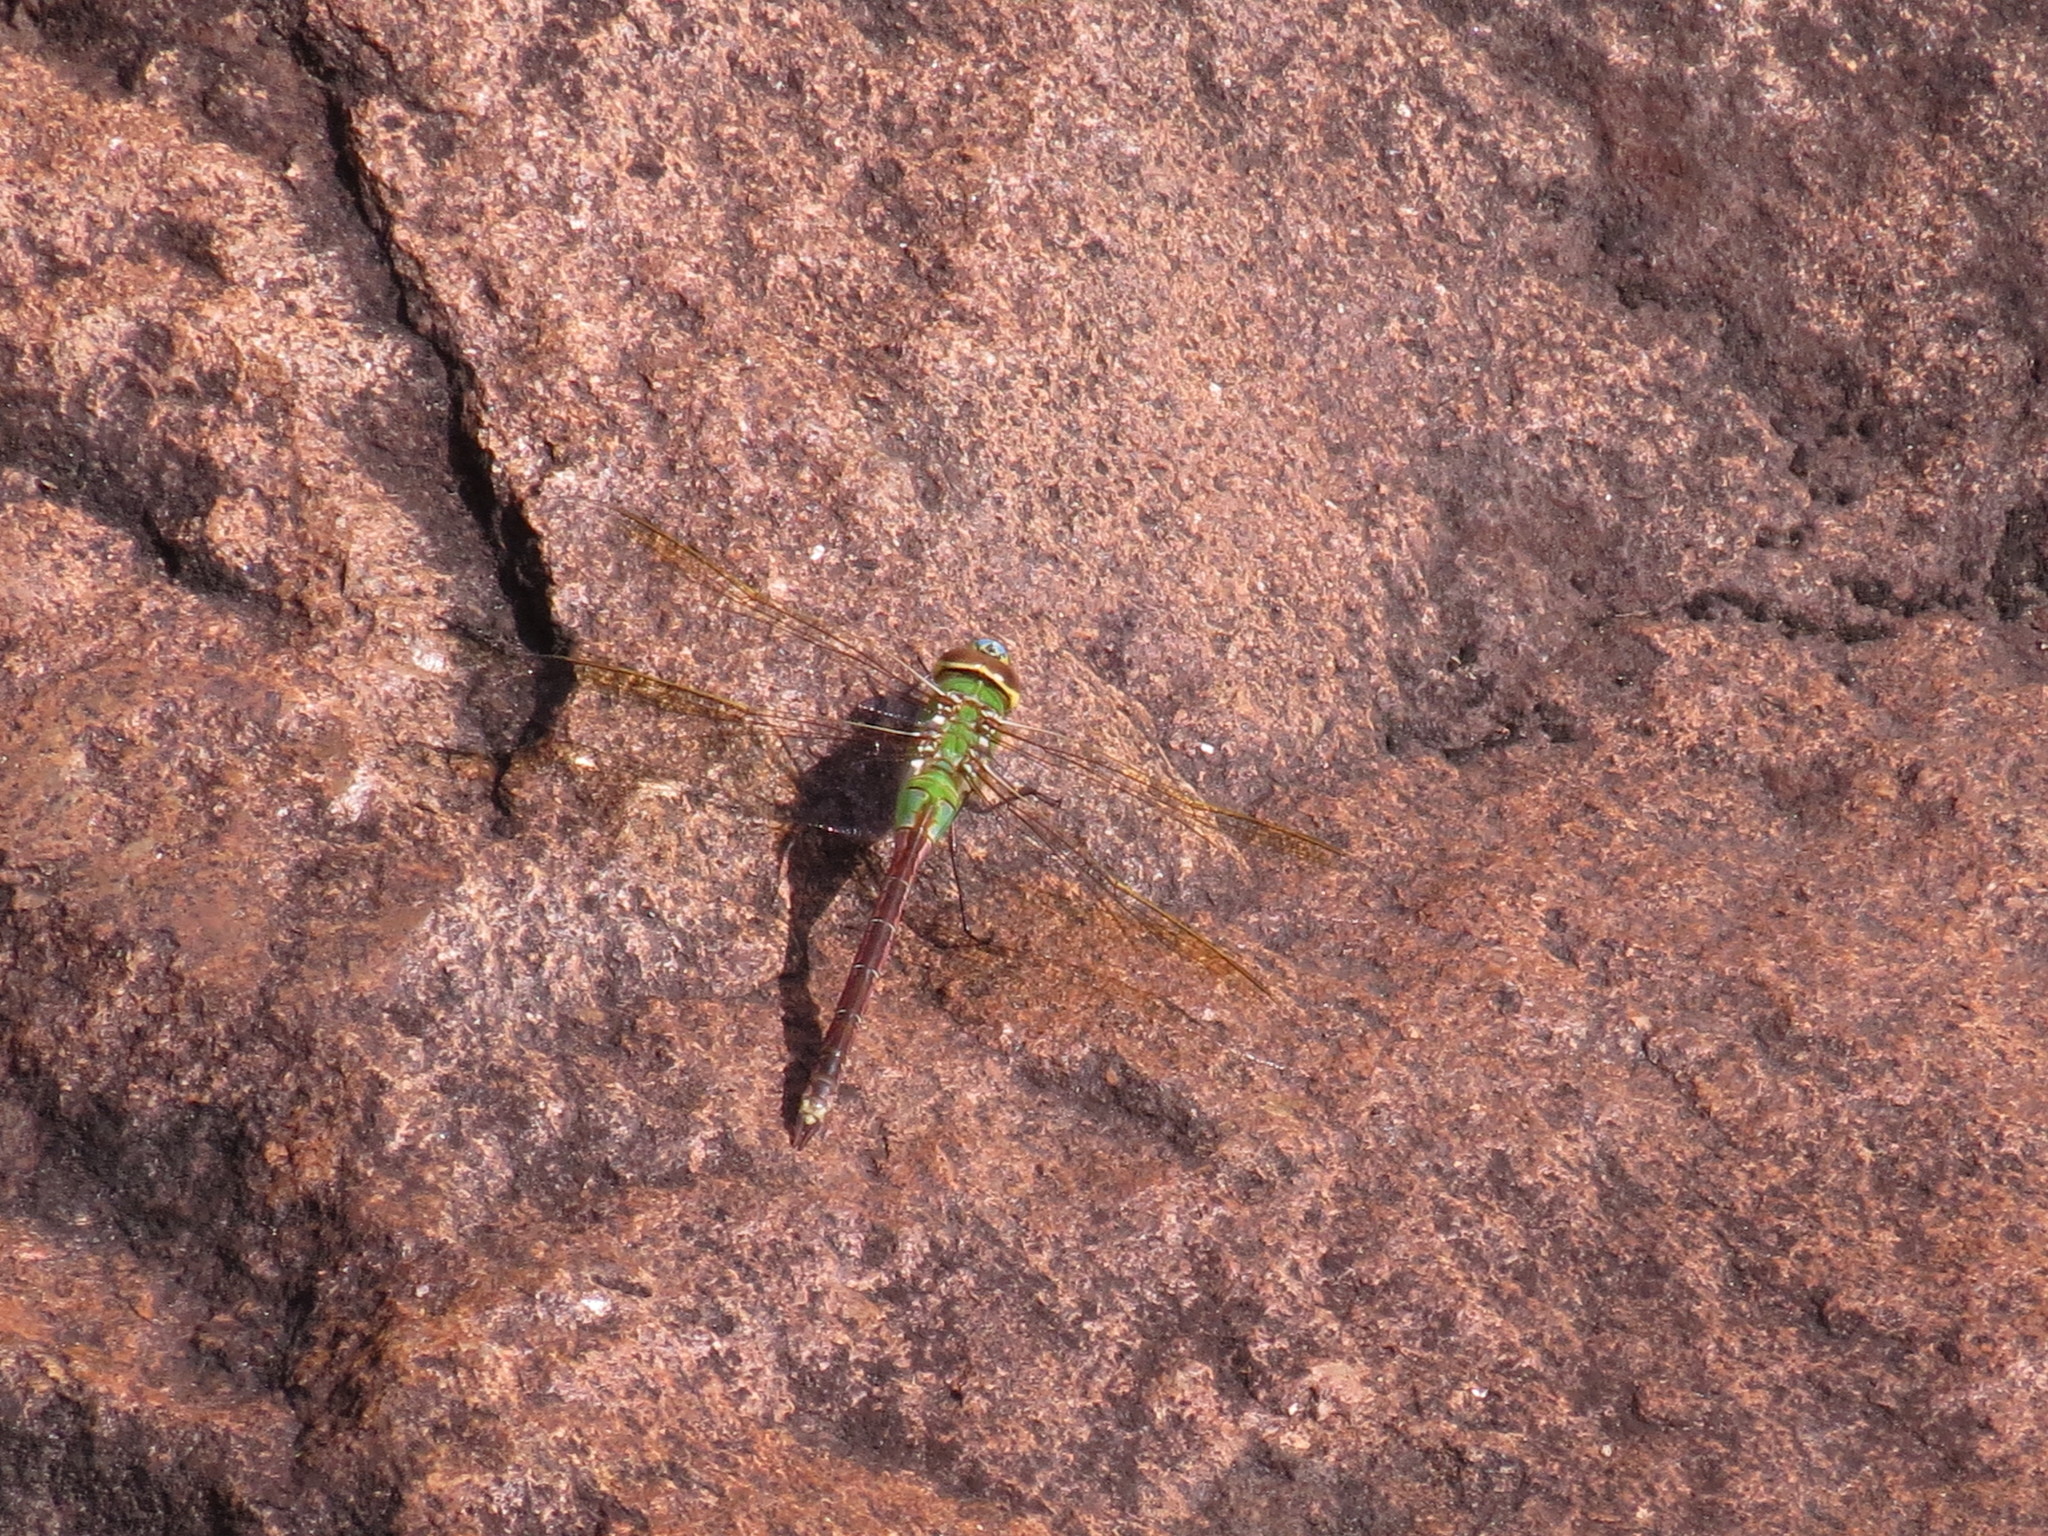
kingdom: Animalia
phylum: Arthropoda
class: Insecta
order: Odonata
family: Aeshnidae
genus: Anax
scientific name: Anax junius
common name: Common green darner
